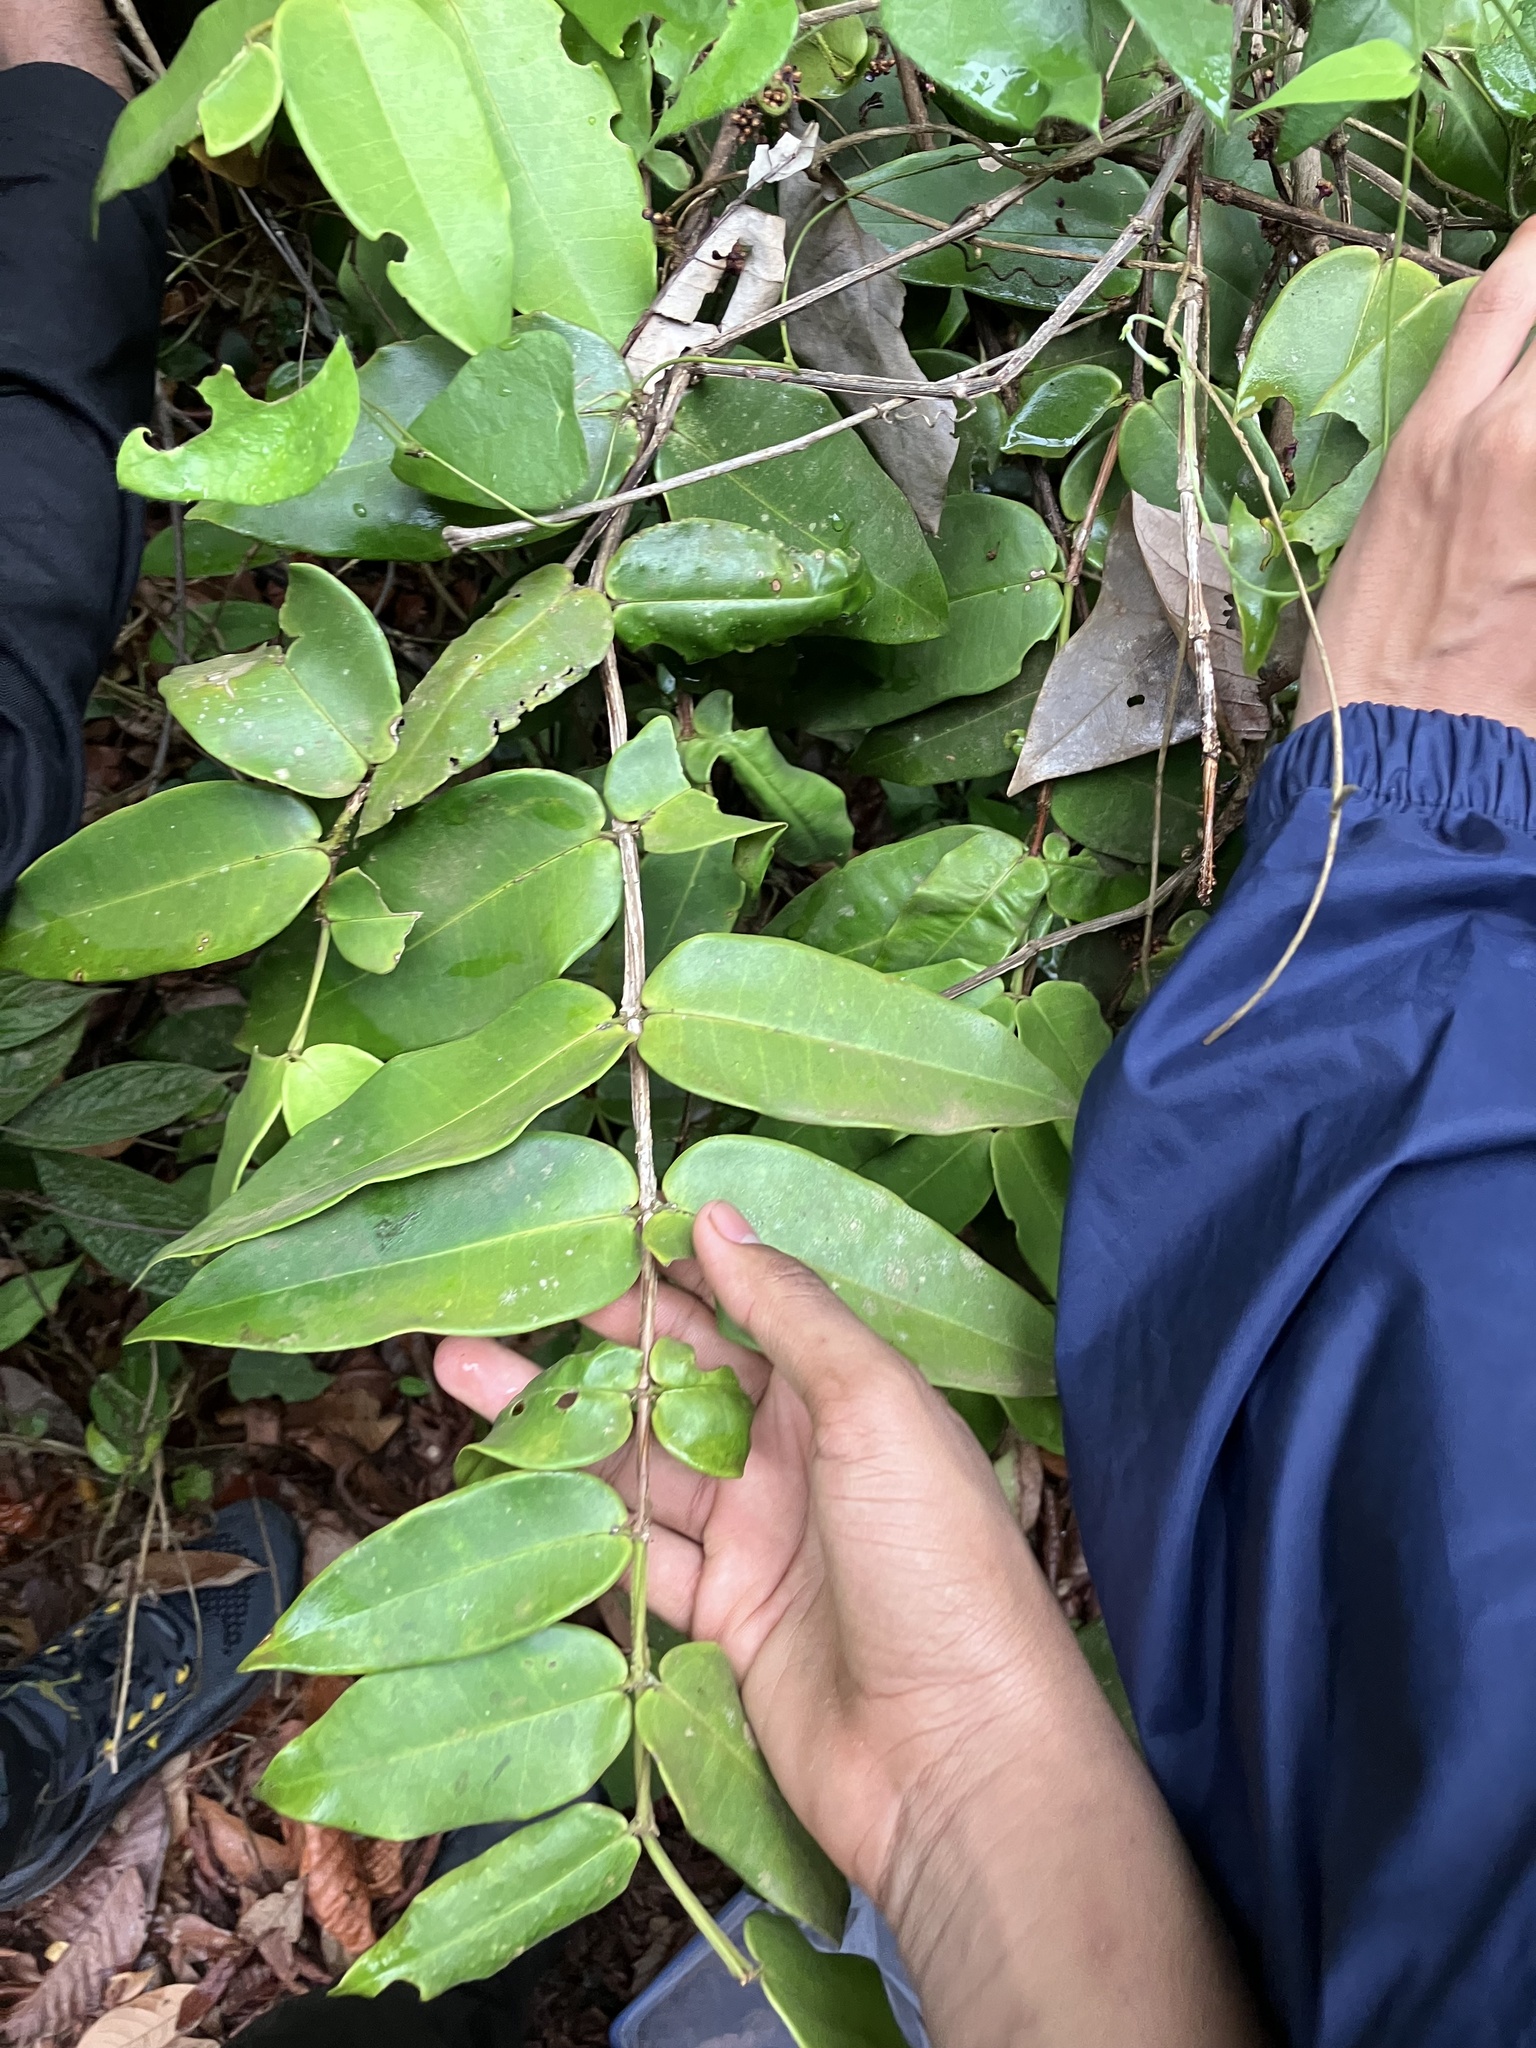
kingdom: Plantae
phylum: Tracheophyta
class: Magnoliopsida
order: Myrtales
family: Melastomataceae
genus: Memecylon
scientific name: Memecylon wightii
